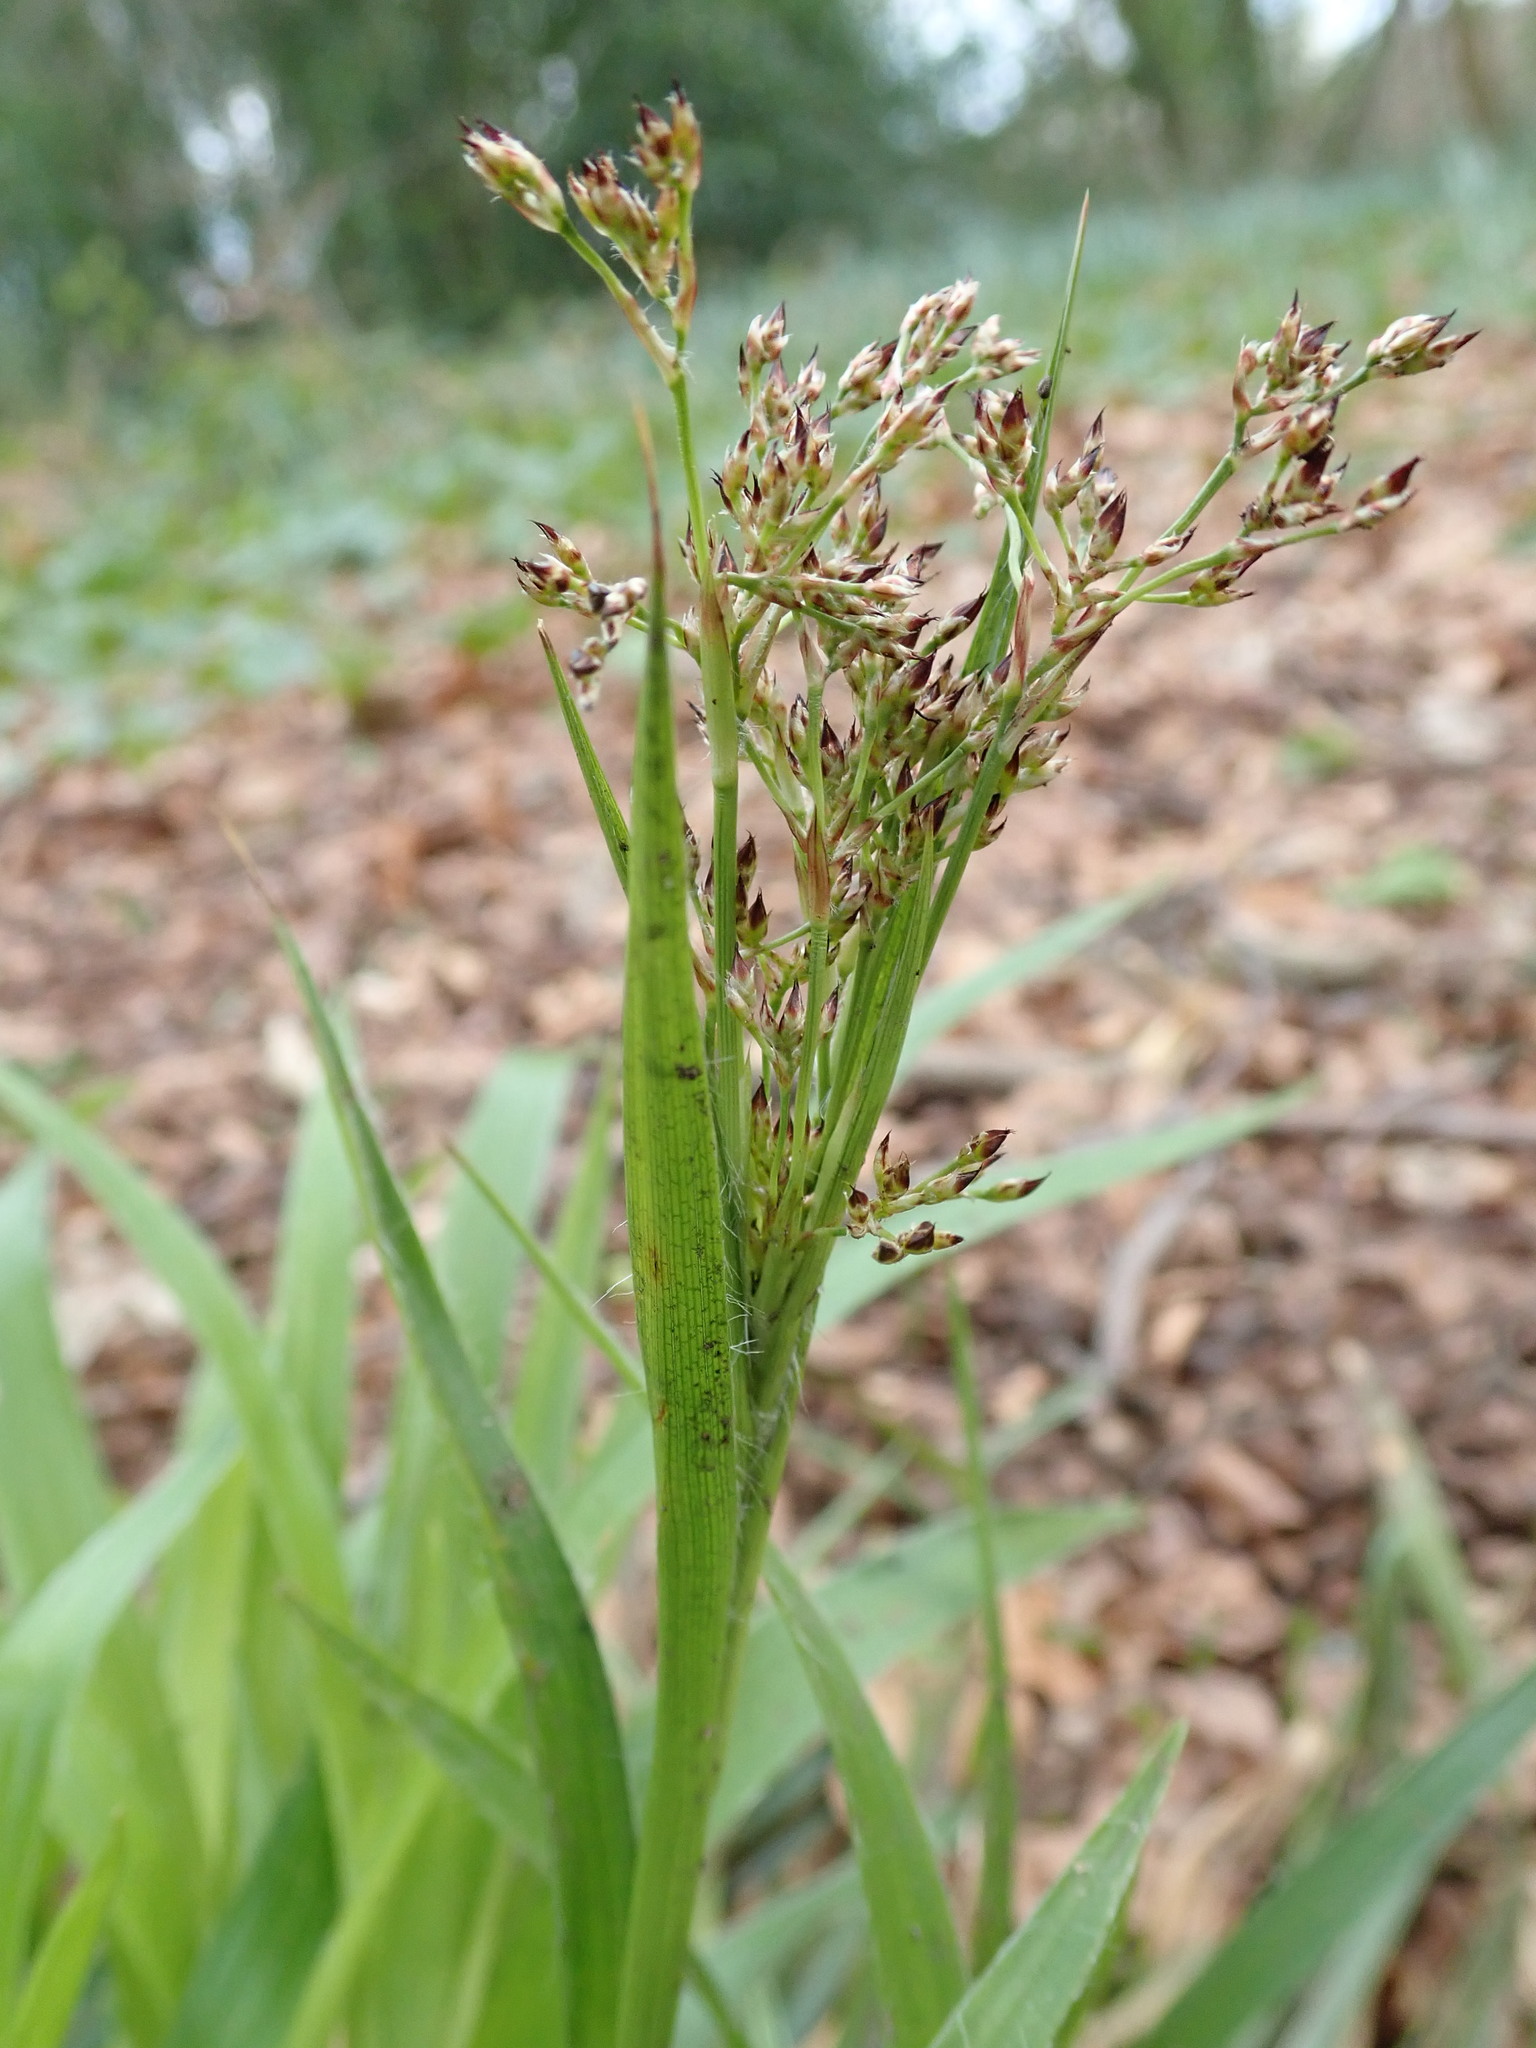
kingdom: Plantae
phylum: Tracheophyta
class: Liliopsida
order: Poales
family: Juncaceae
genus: Luzula
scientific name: Luzula sylvatica
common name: Great wood-rush
